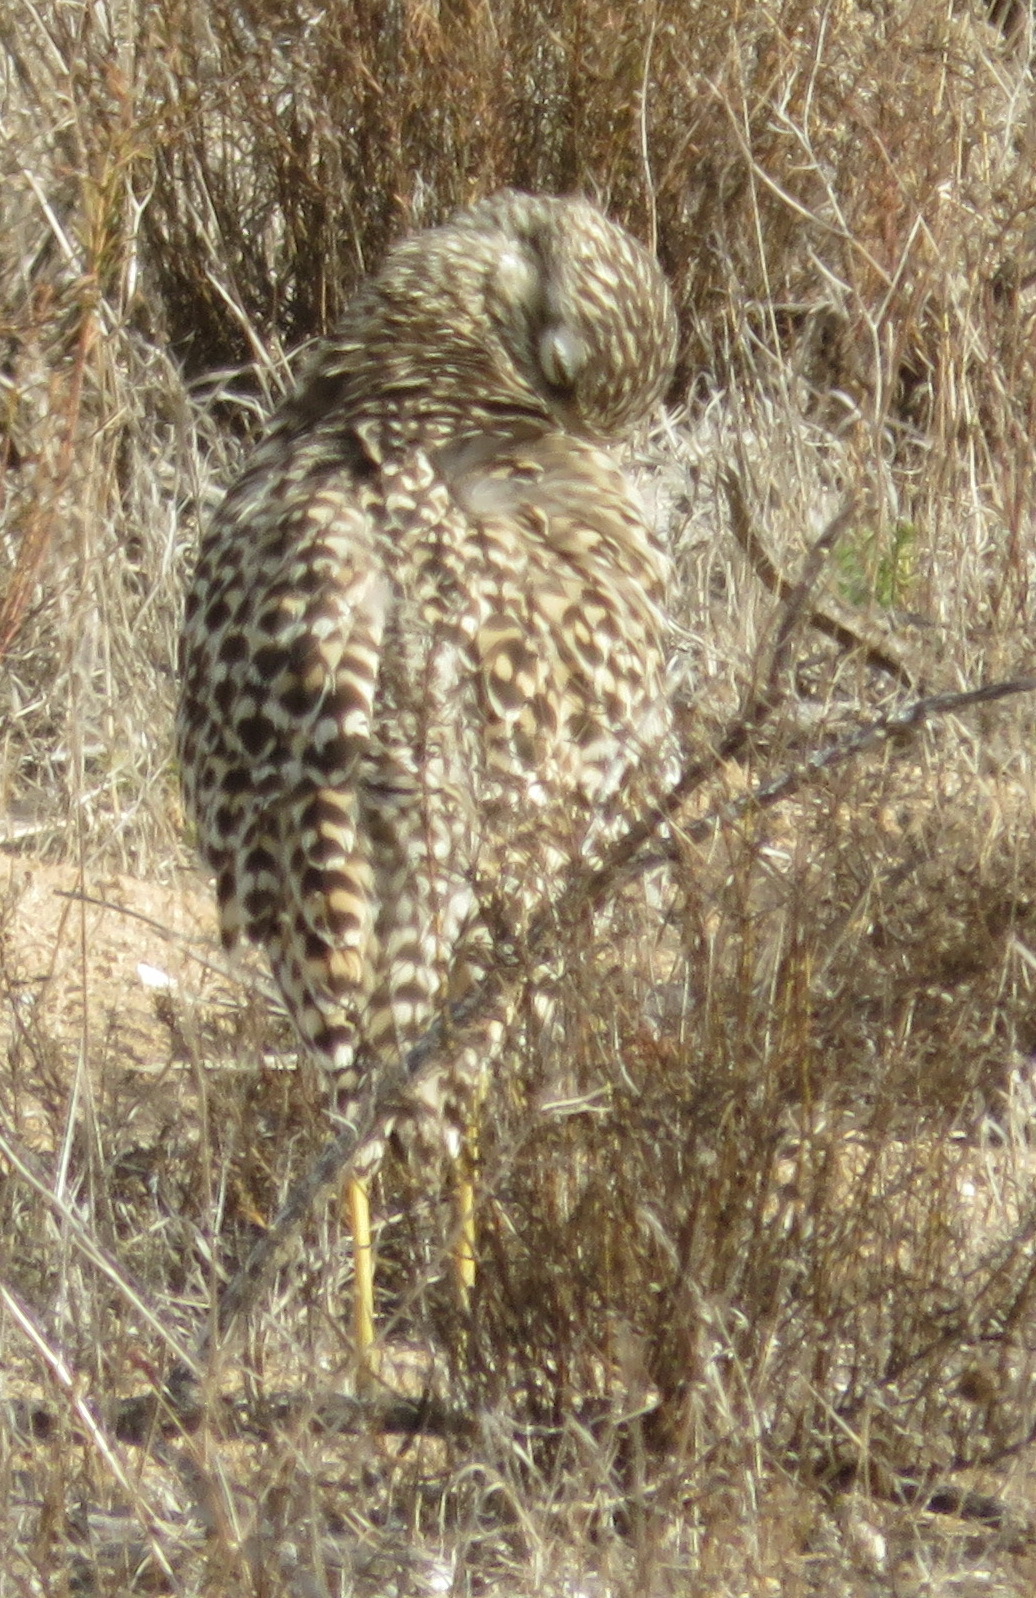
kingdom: Animalia
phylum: Chordata
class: Aves
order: Charadriiformes
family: Burhinidae
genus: Burhinus
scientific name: Burhinus capensis
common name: Spotted thick-knee
